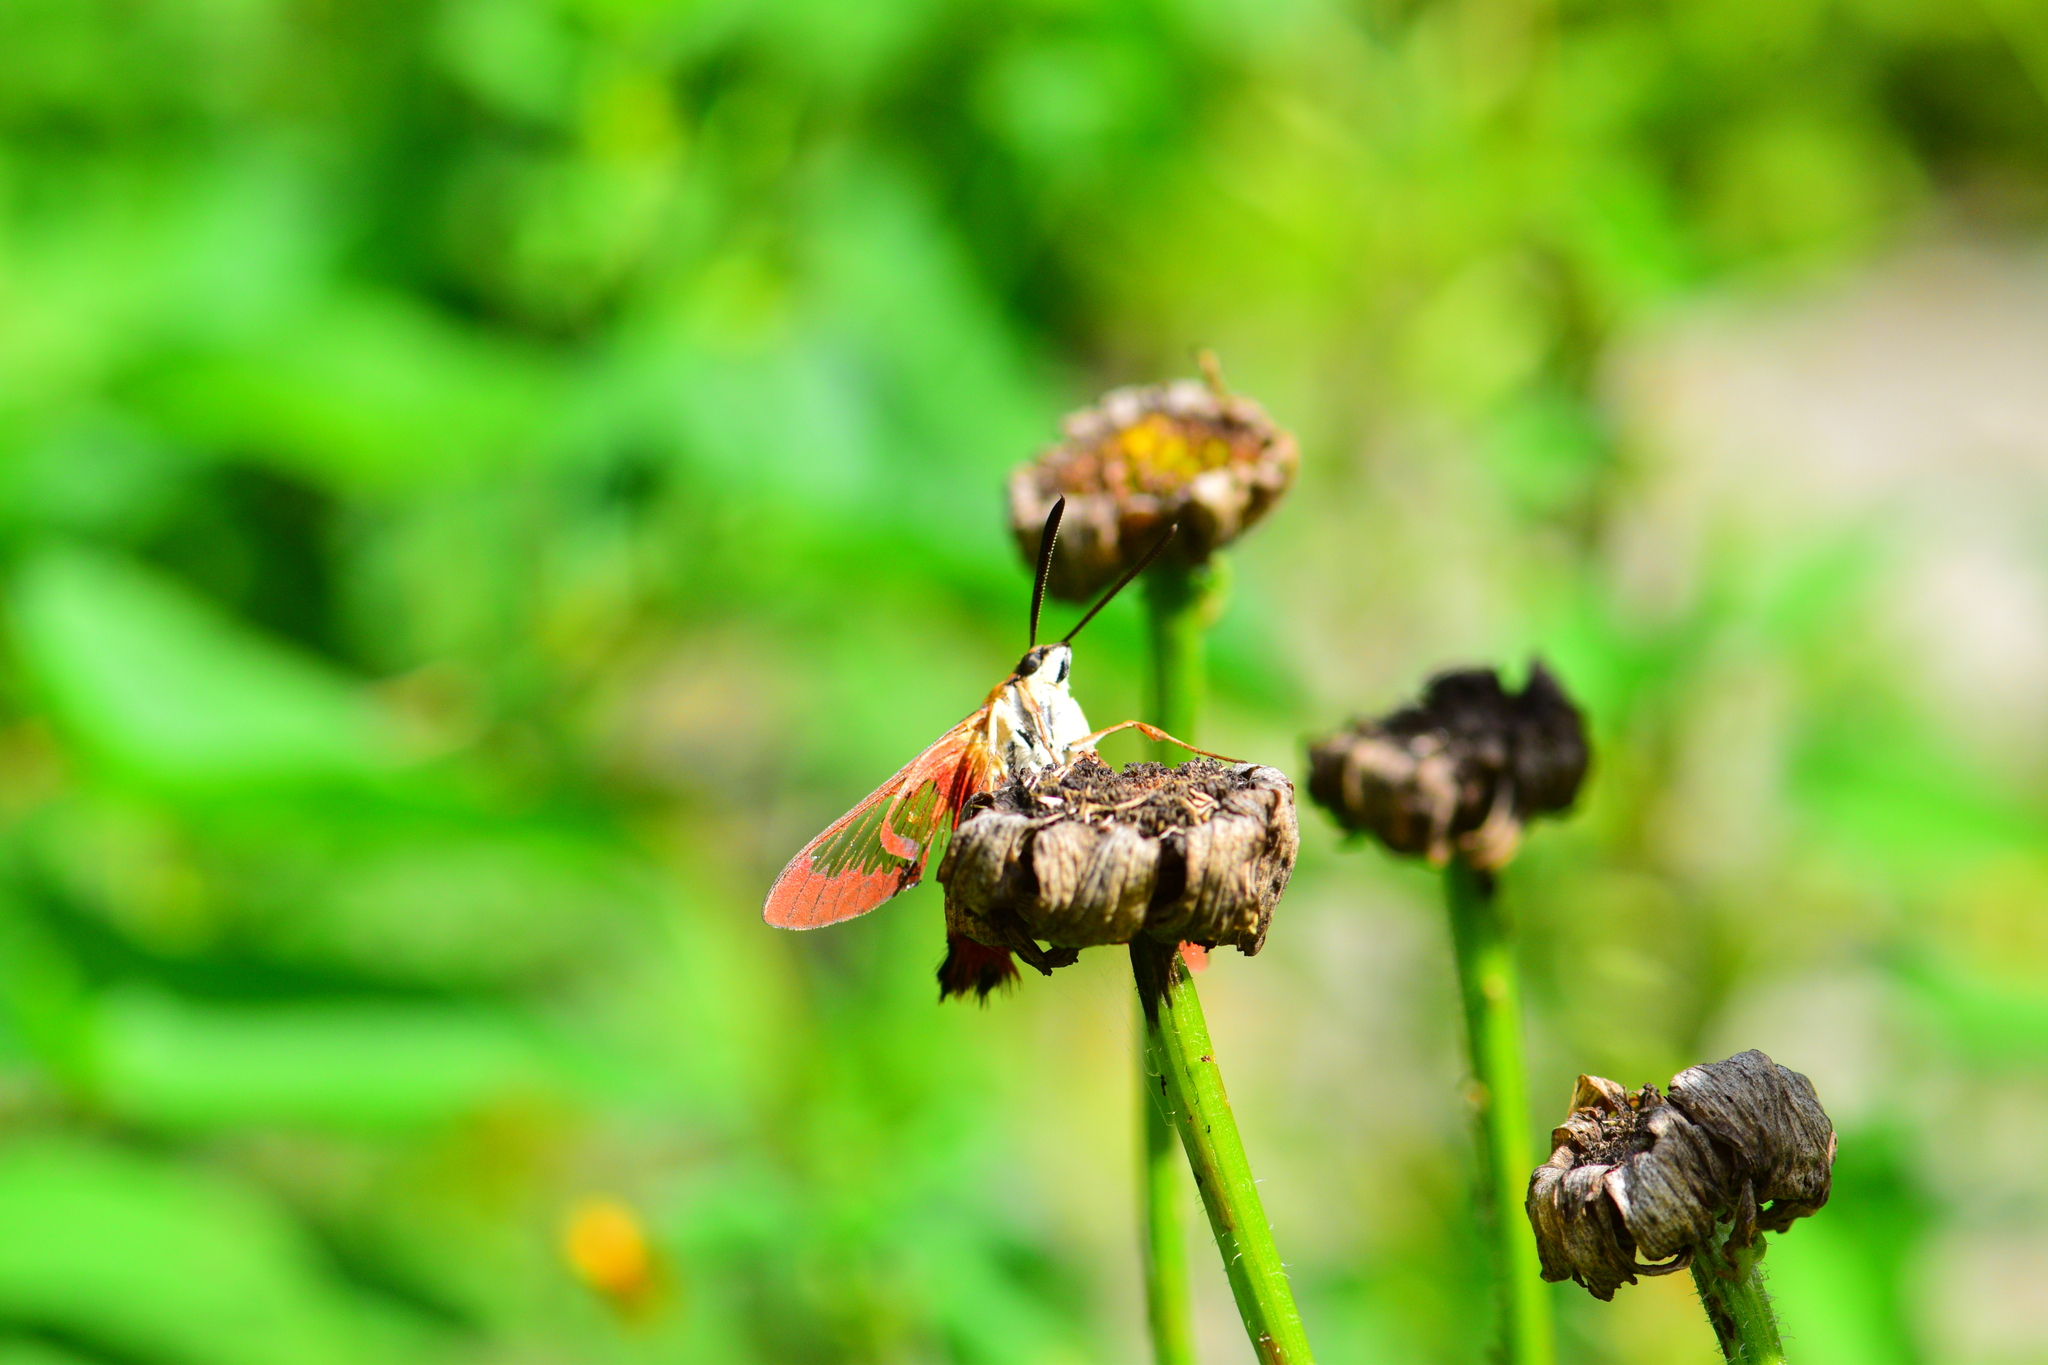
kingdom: Animalia
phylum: Arthropoda
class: Insecta
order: Lepidoptera
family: Sphingidae
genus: Hemaris
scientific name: Hemaris thysbe
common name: Common clear-wing
